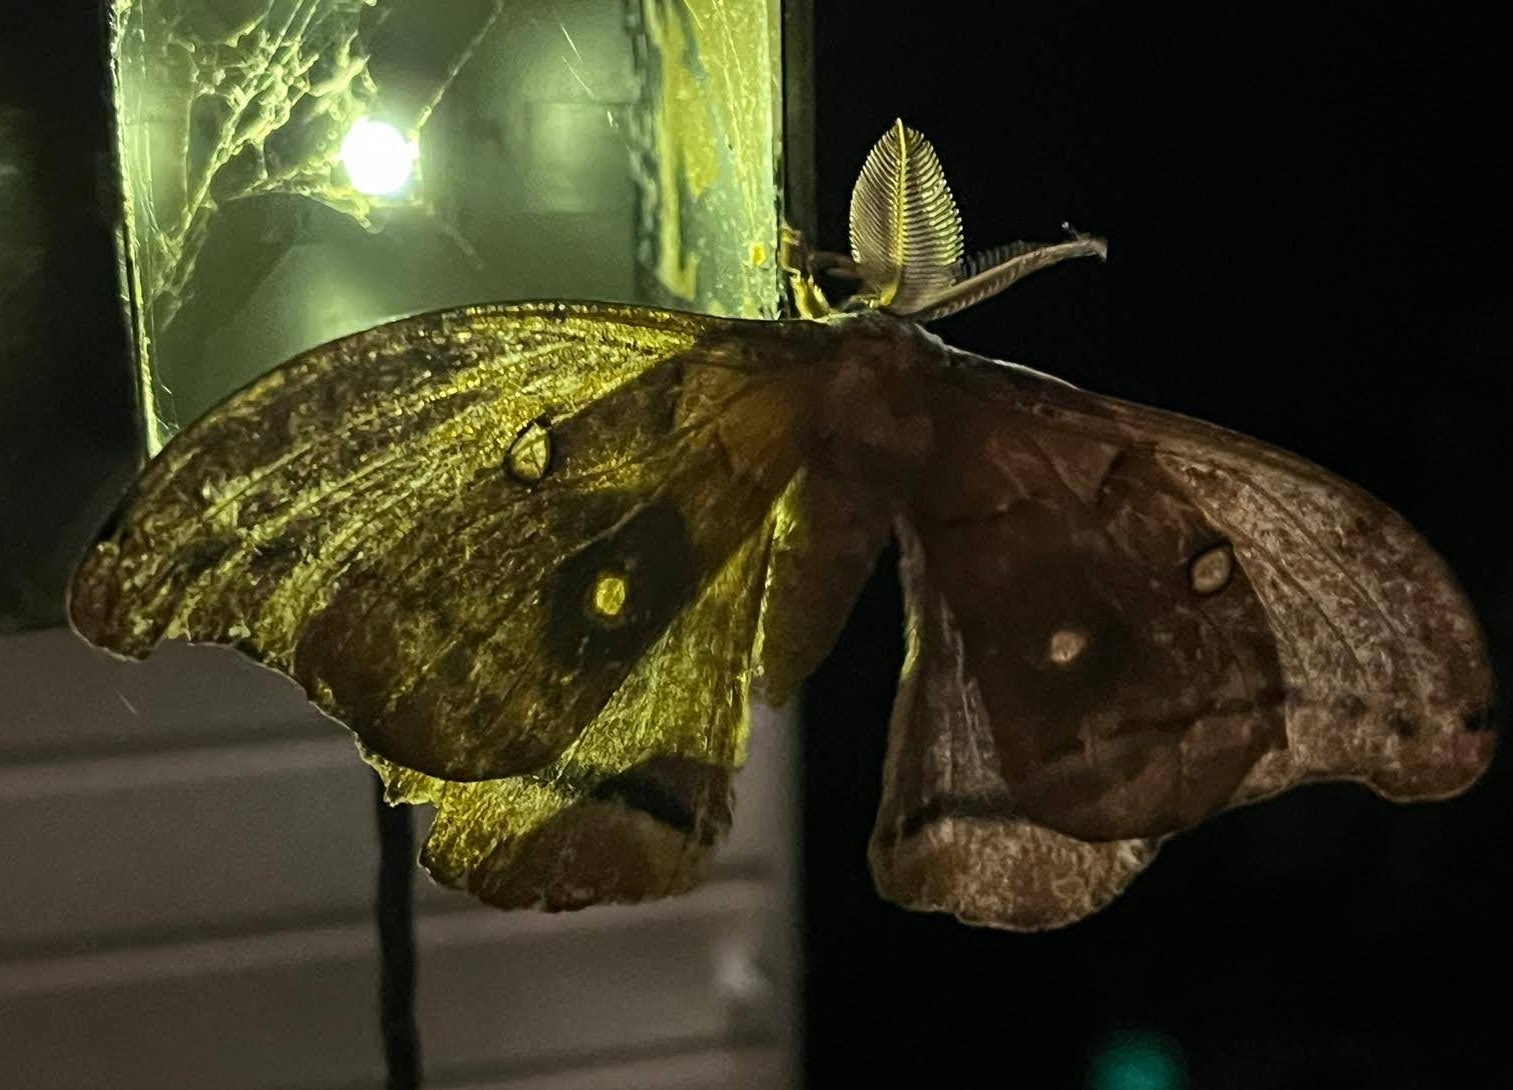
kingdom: Animalia
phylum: Arthropoda
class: Insecta
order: Lepidoptera
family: Saturniidae
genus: Antheraea
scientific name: Antheraea polyphemus
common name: Polyphemus moth
